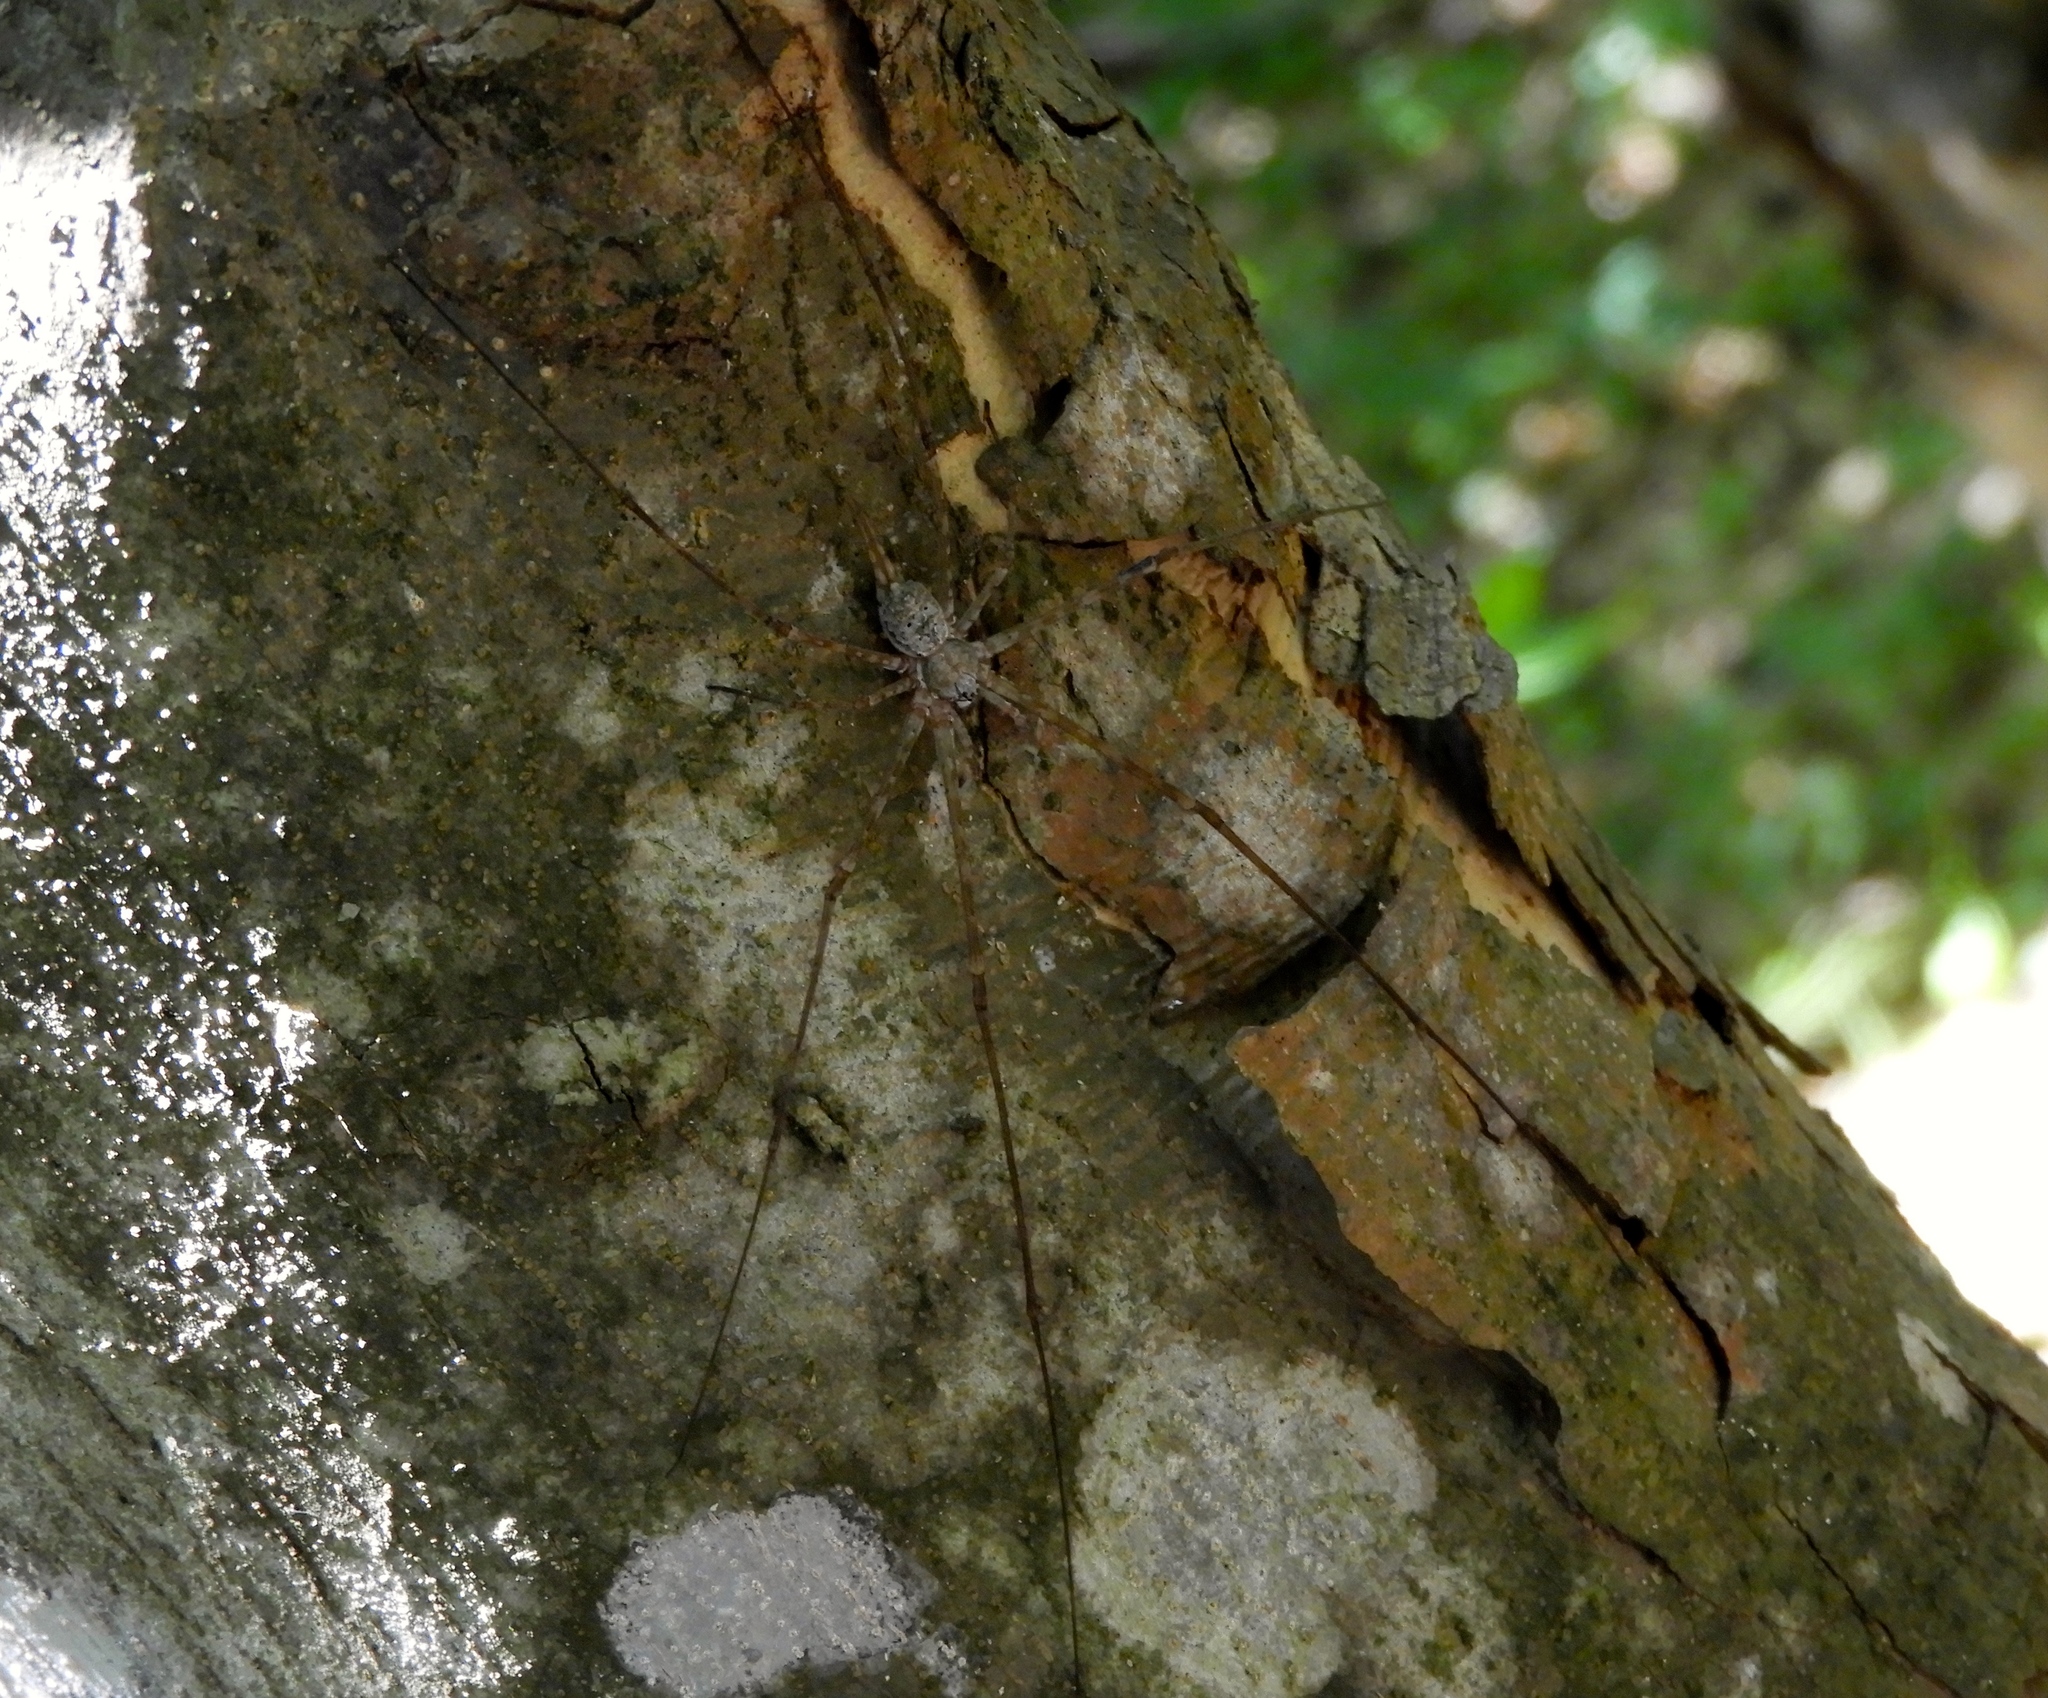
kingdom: Animalia
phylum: Arthropoda
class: Arachnida
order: Araneae
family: Hersiliidae
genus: Neotama
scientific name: Neotama mexicana
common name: Tree trunk spiders
